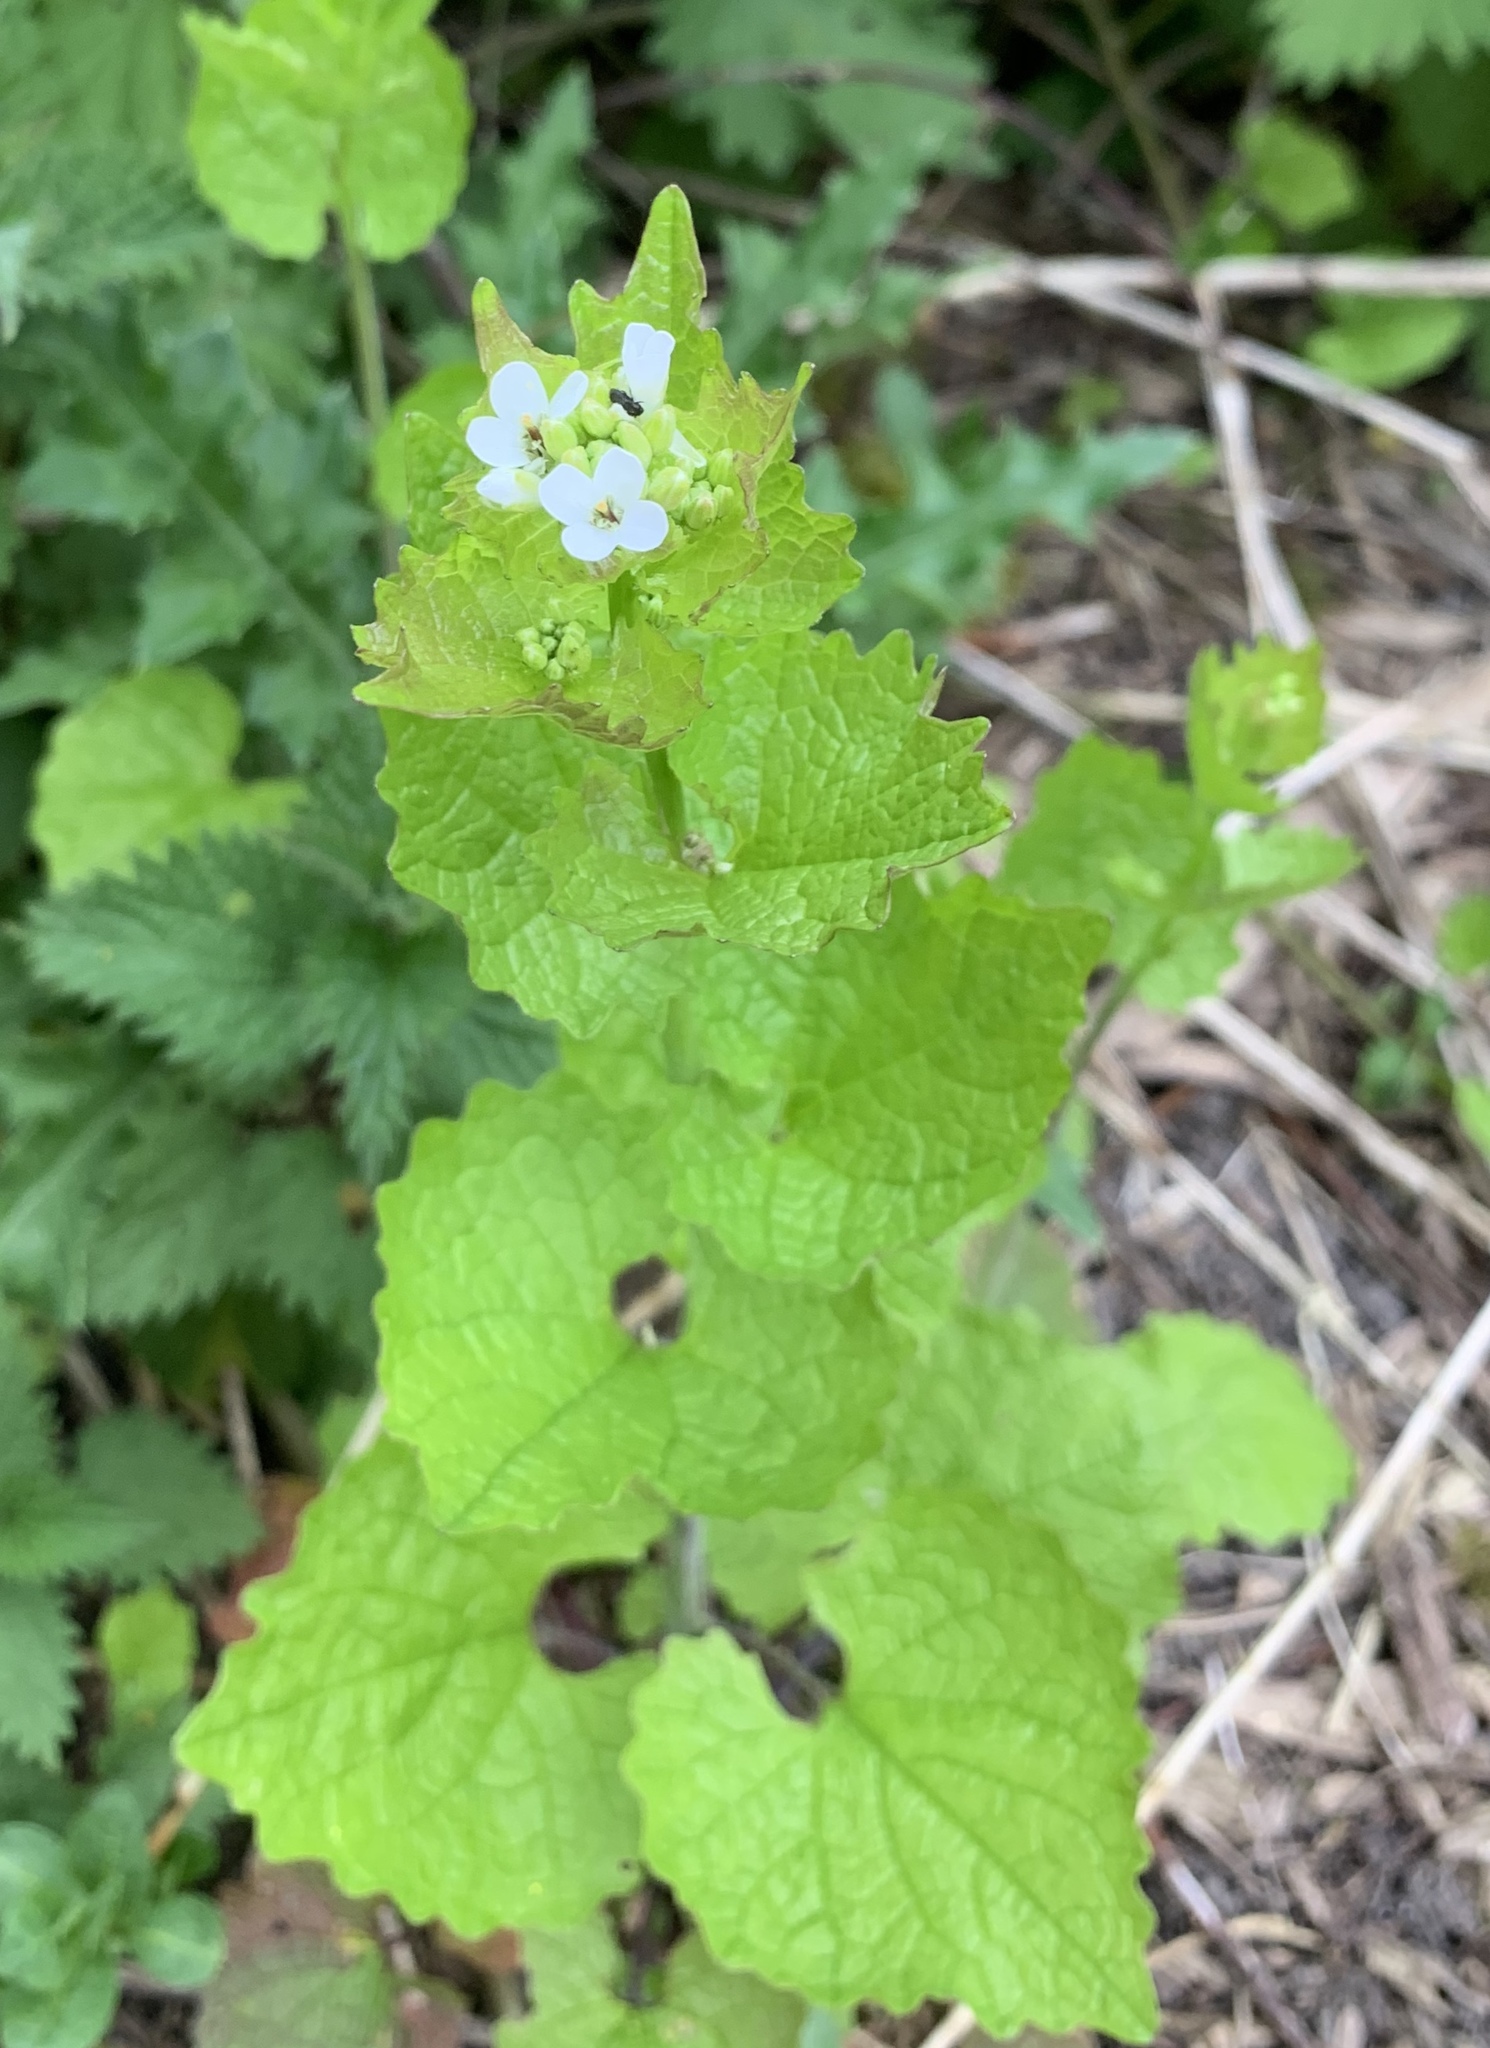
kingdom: Plantae
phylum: Tracheophyta
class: Magnoliopsida
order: Brassicales
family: Brassicaceae
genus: Alliaria
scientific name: Alliaria petiolata
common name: Garlic mustard
